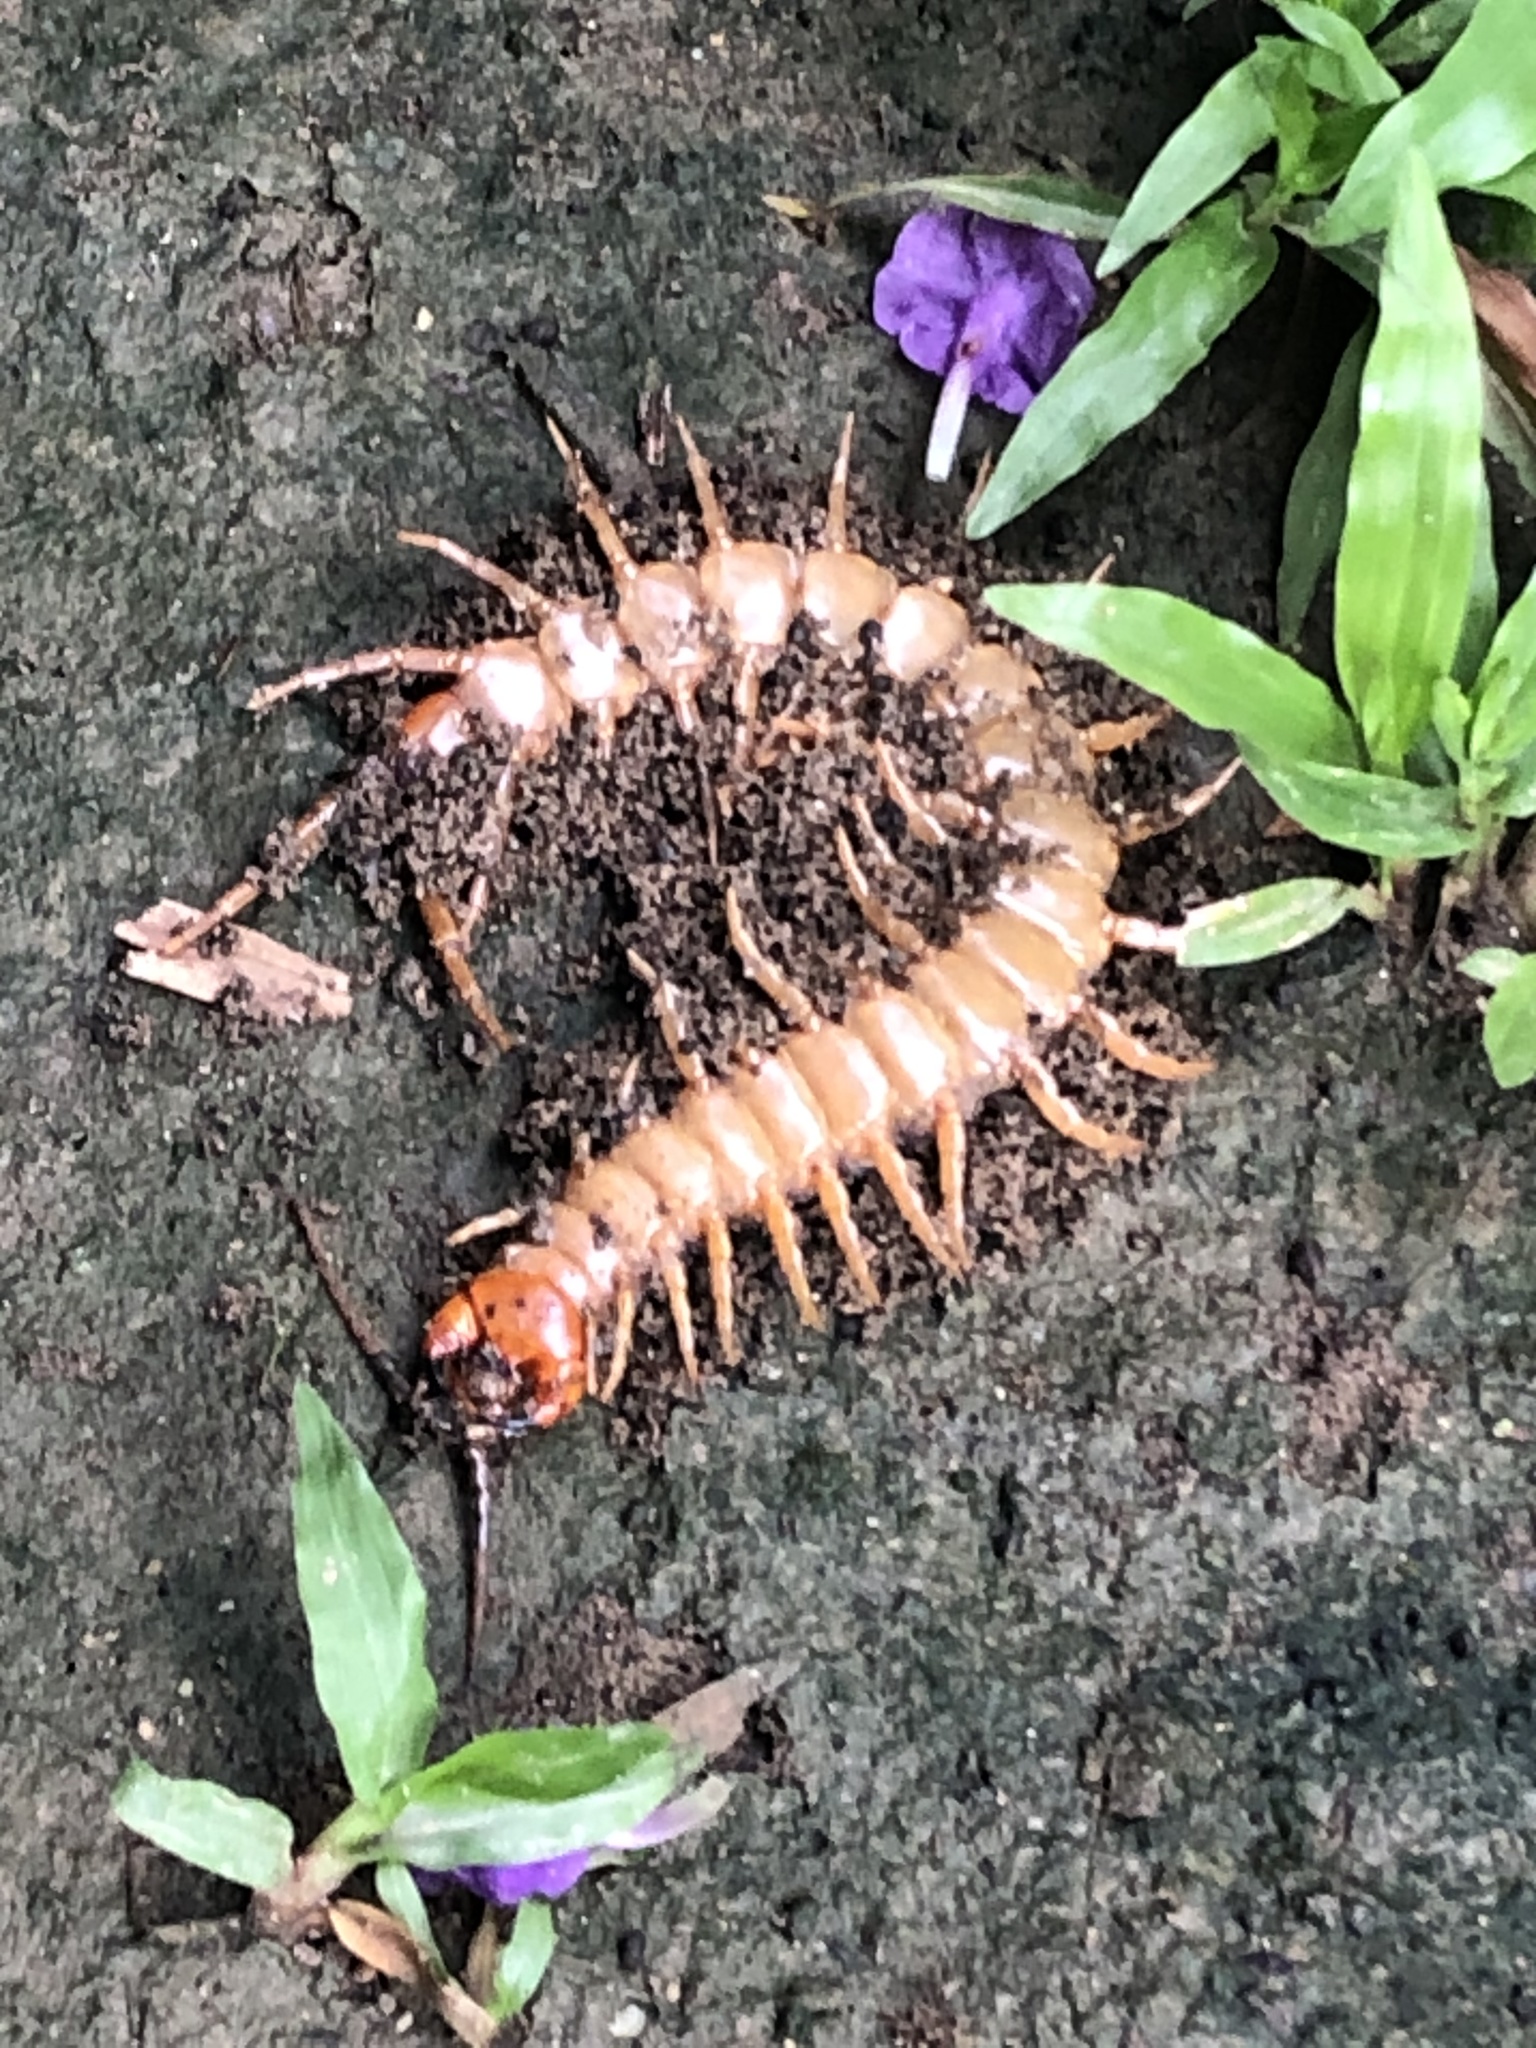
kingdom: Animalia
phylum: Arthropoda
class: Chilopoda
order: Scolopendromorpha
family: Scolopendridae
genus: Scolopendra
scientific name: Scolopendra hermosa
